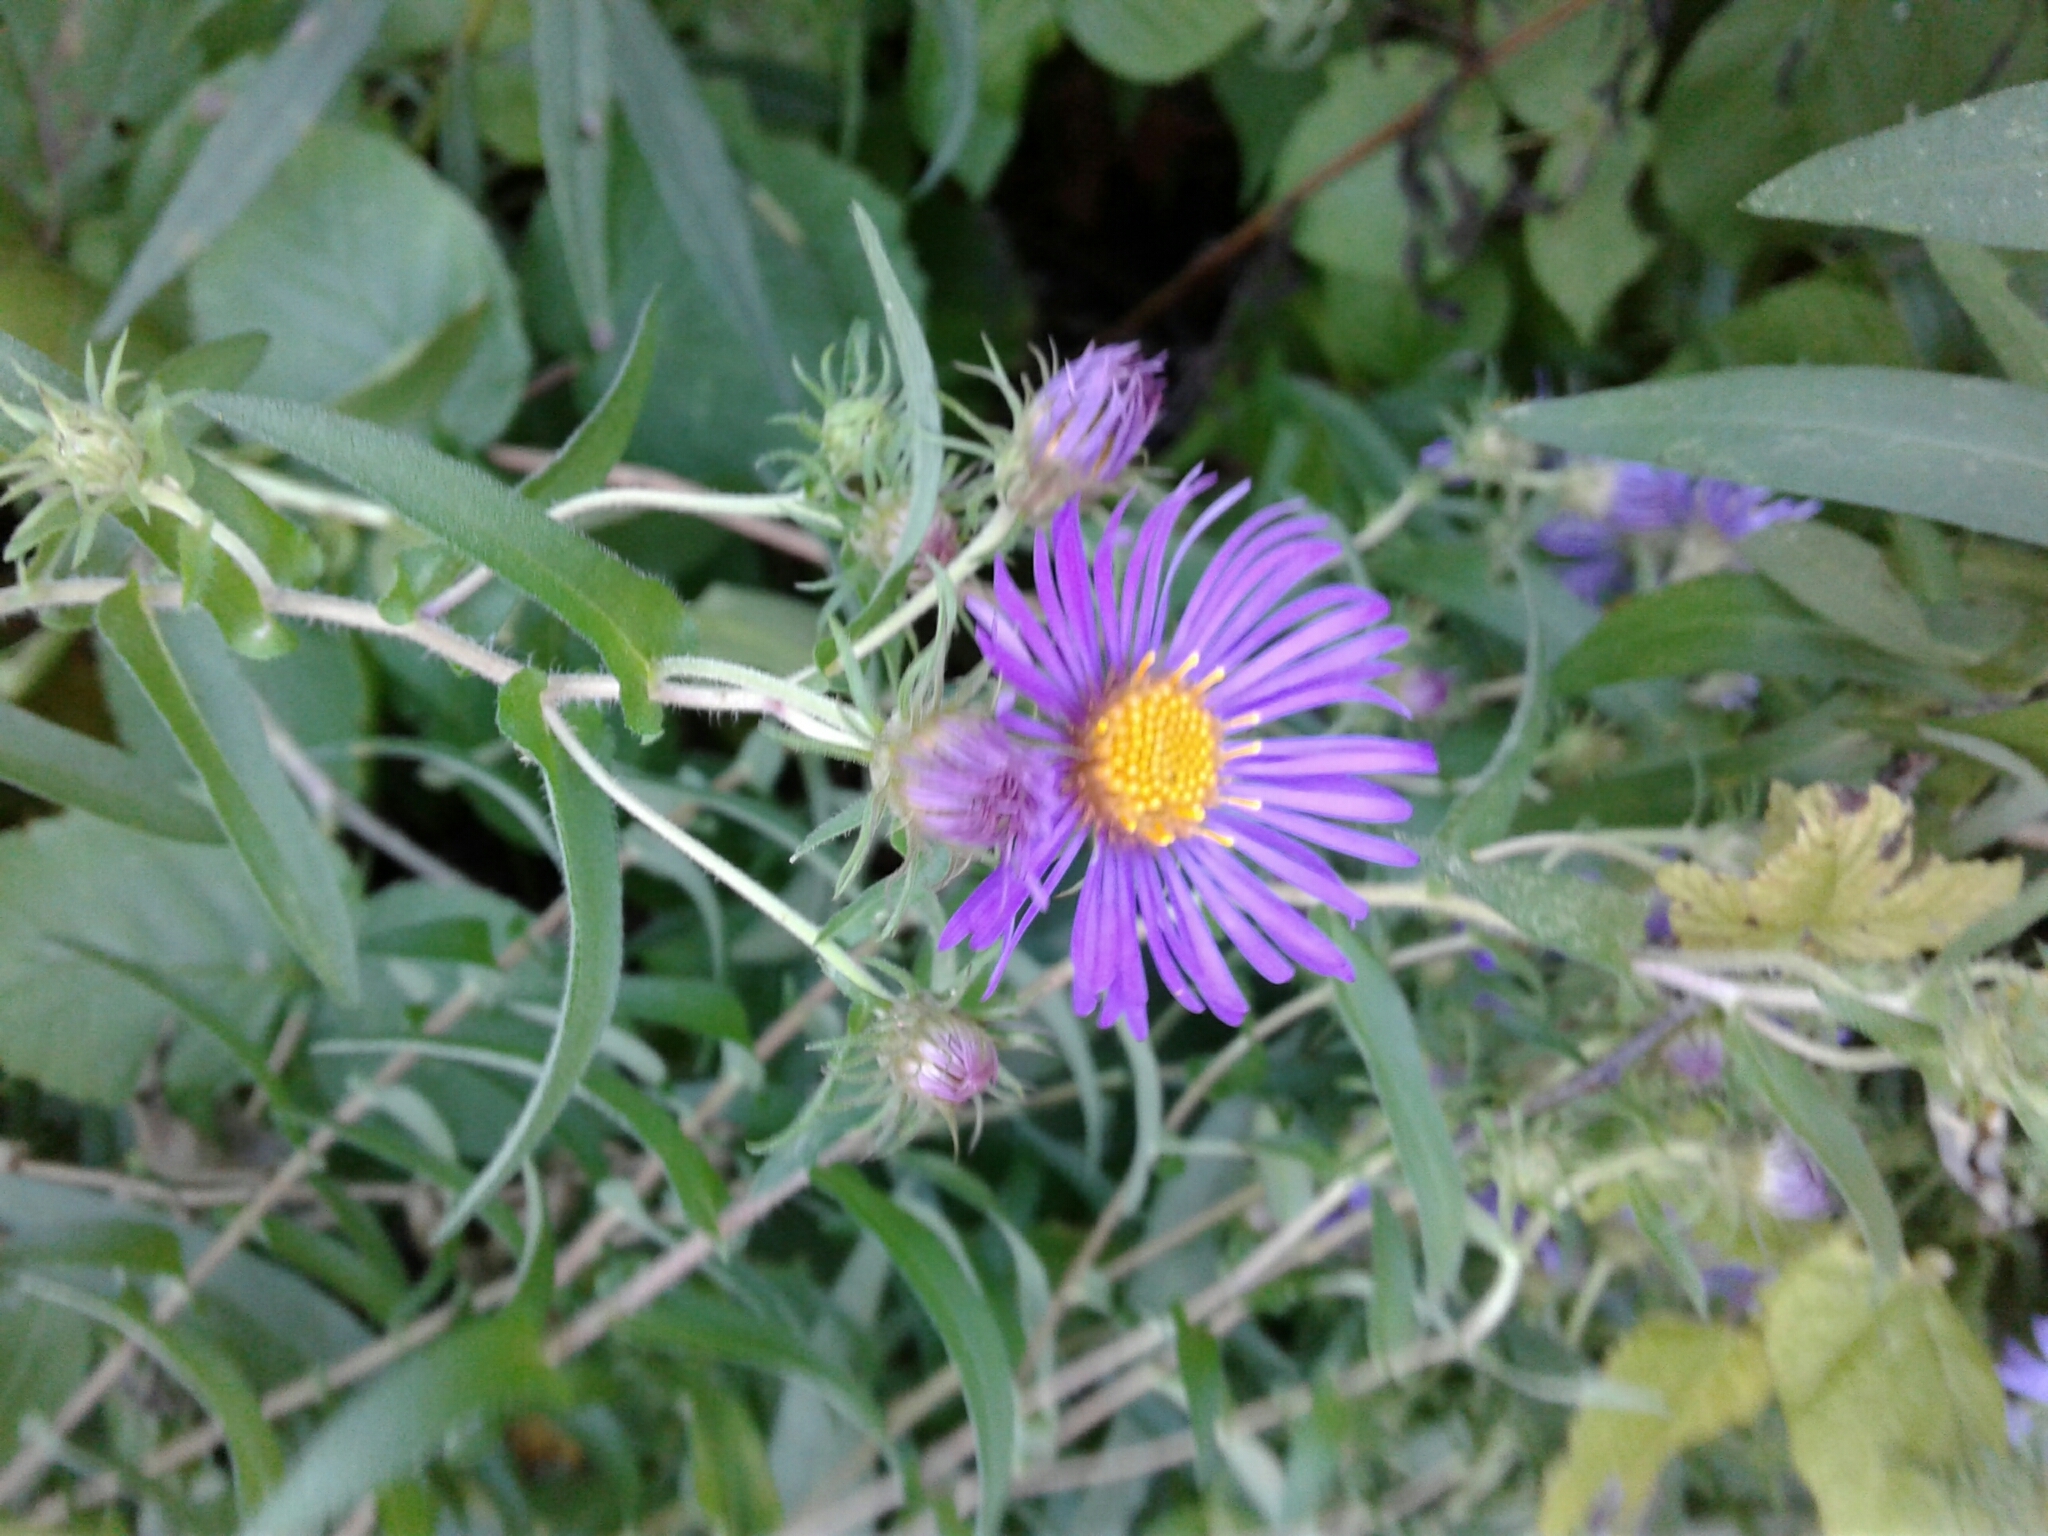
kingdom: Plantae
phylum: Tracheophyta
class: Magnoliopsida
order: Asterales
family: Asteraceae
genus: Symphyotrichum
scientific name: Symphyotrichum novae-angliae
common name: Michaelmas daisy
